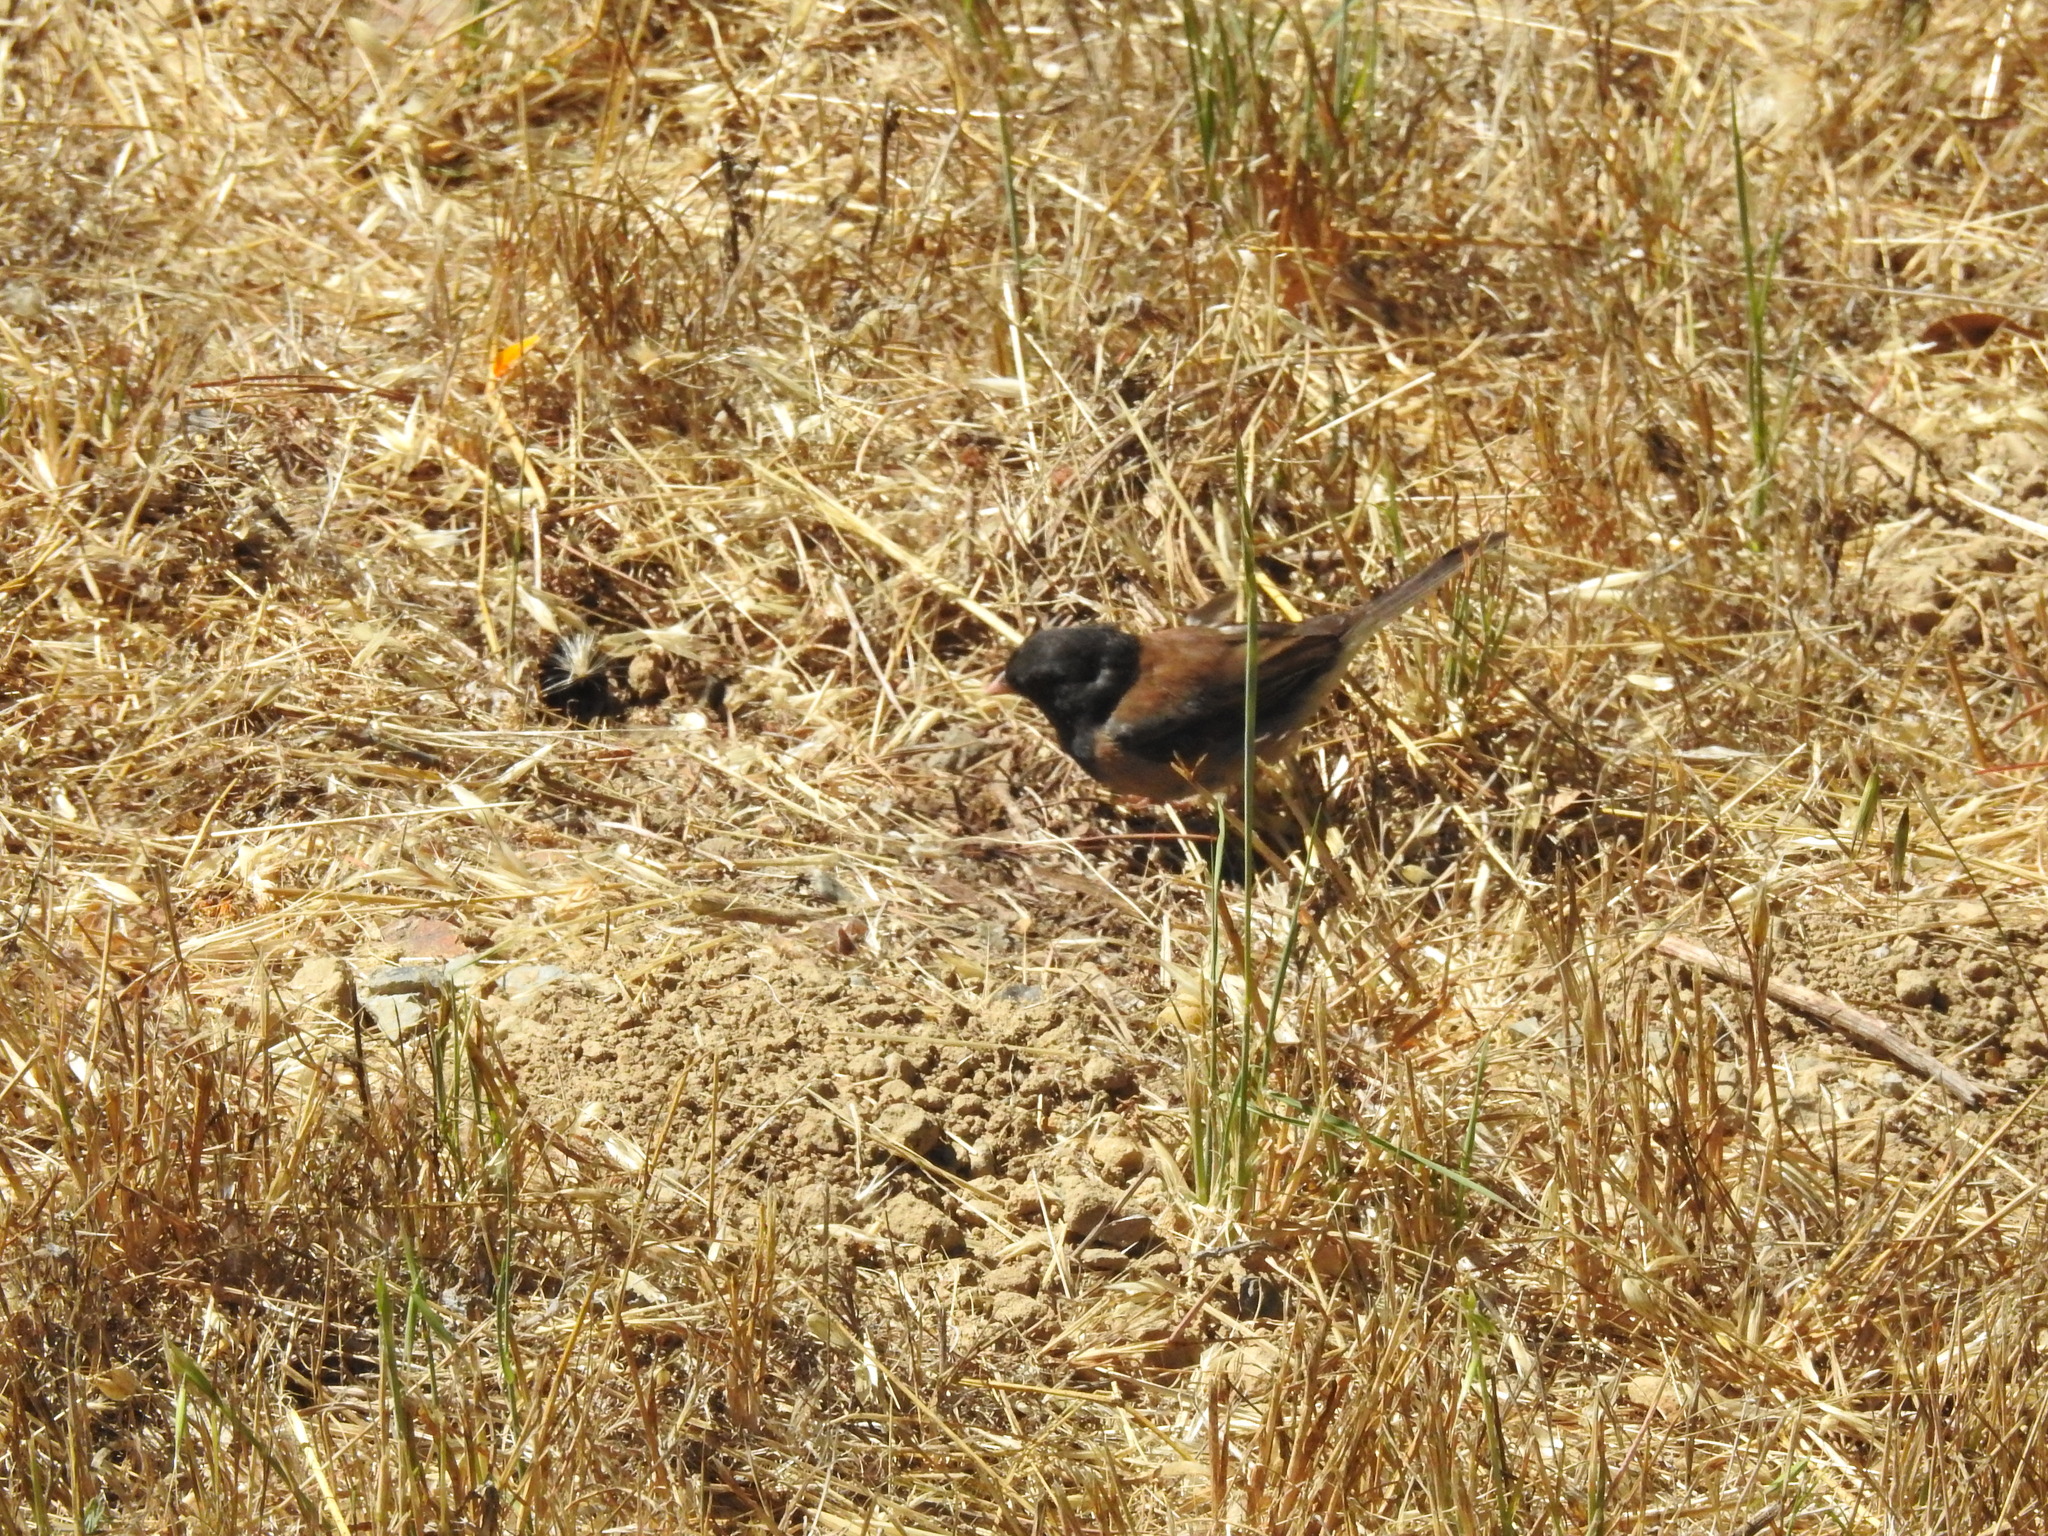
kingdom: Animalia
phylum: Chordata
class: Aves
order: Passeriformes
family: Passerellidae
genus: Junco
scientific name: Junco hyemalis
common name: Dark-eyed junco
